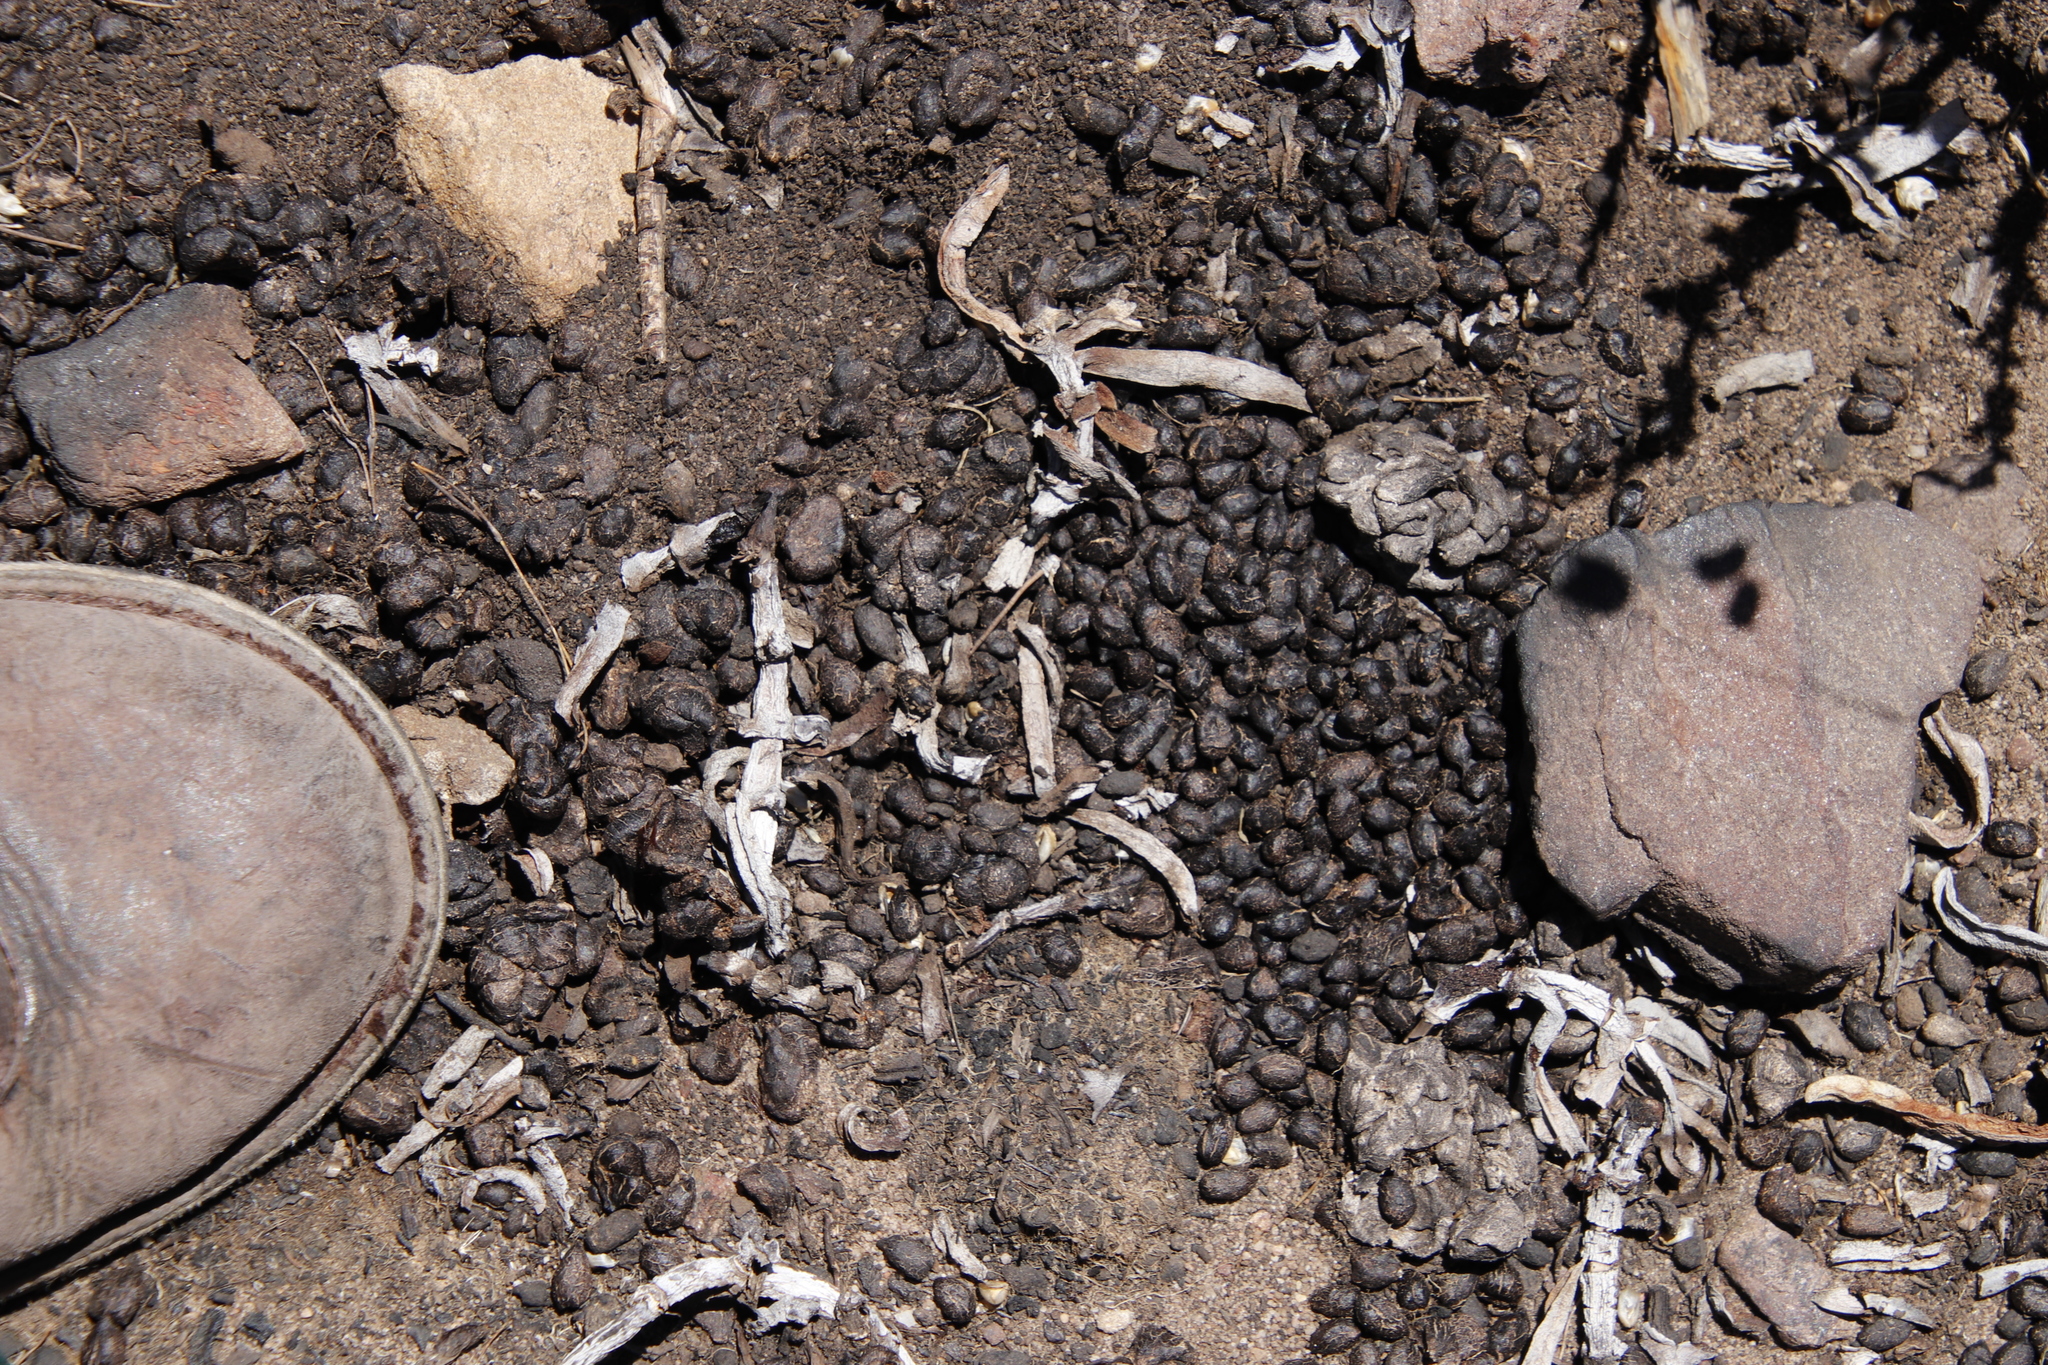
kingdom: Animalia
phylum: Chordata
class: Mammalia
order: Artiodactyla
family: Bovidae
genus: Oreotragus
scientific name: Oreotragus oreotragus
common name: Klipspringer
